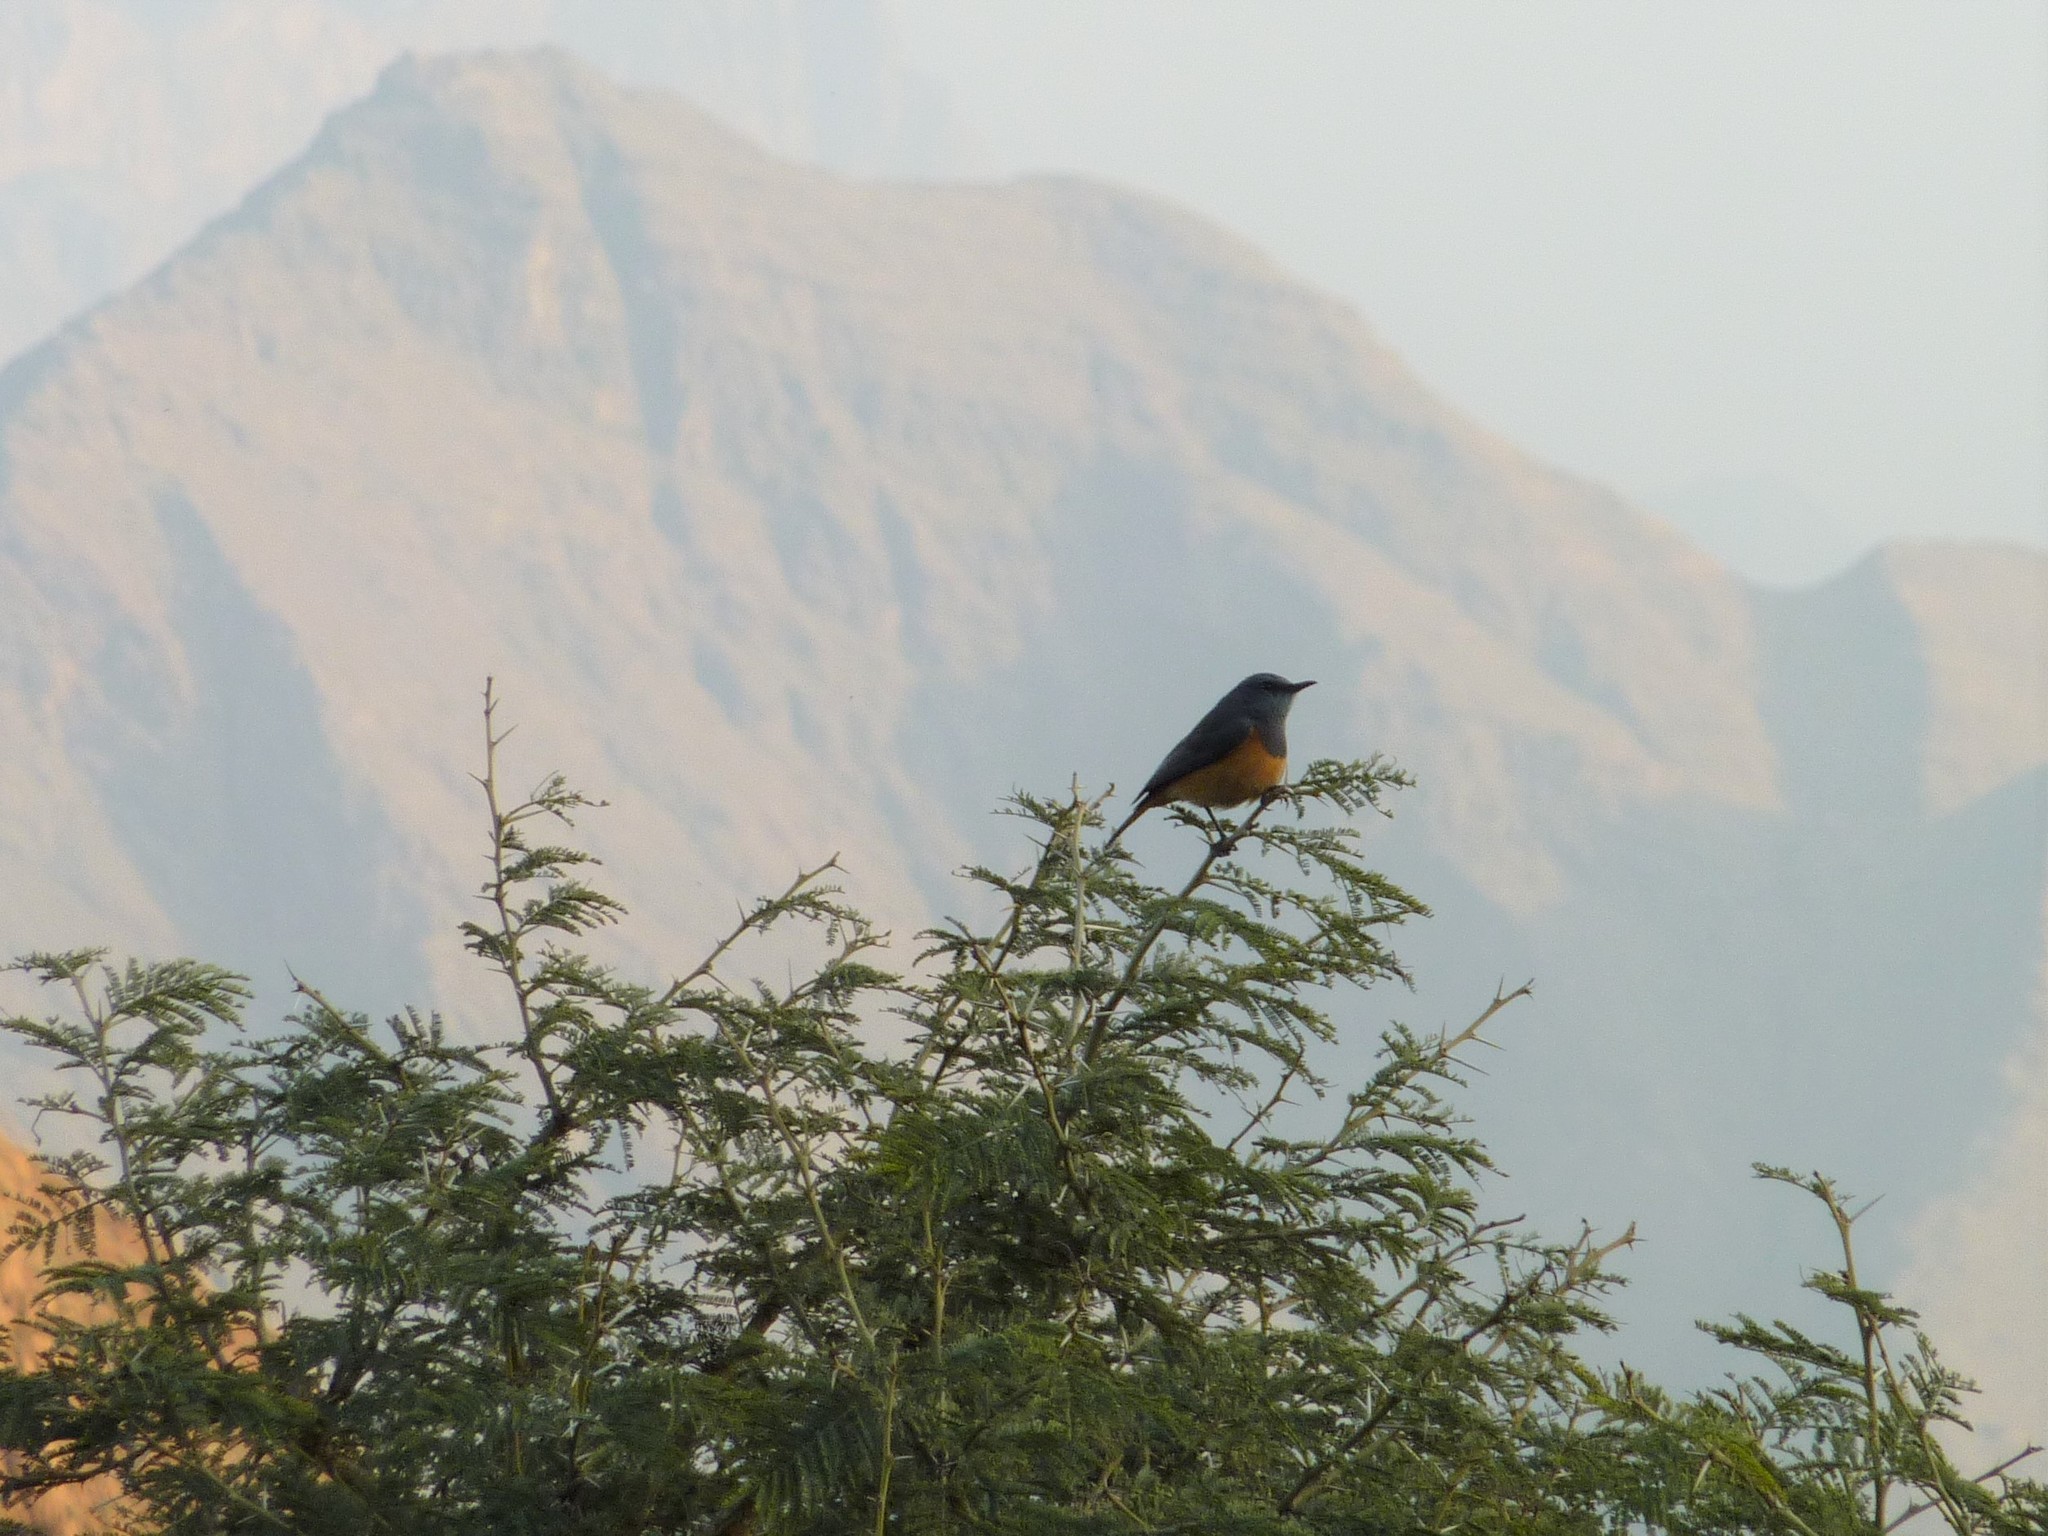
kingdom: Animalia
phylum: Chordata
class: Aves
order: Passeriformes
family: Muscicapidae
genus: Monticola
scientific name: Monticola rufocinereus
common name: Little rock thrush
